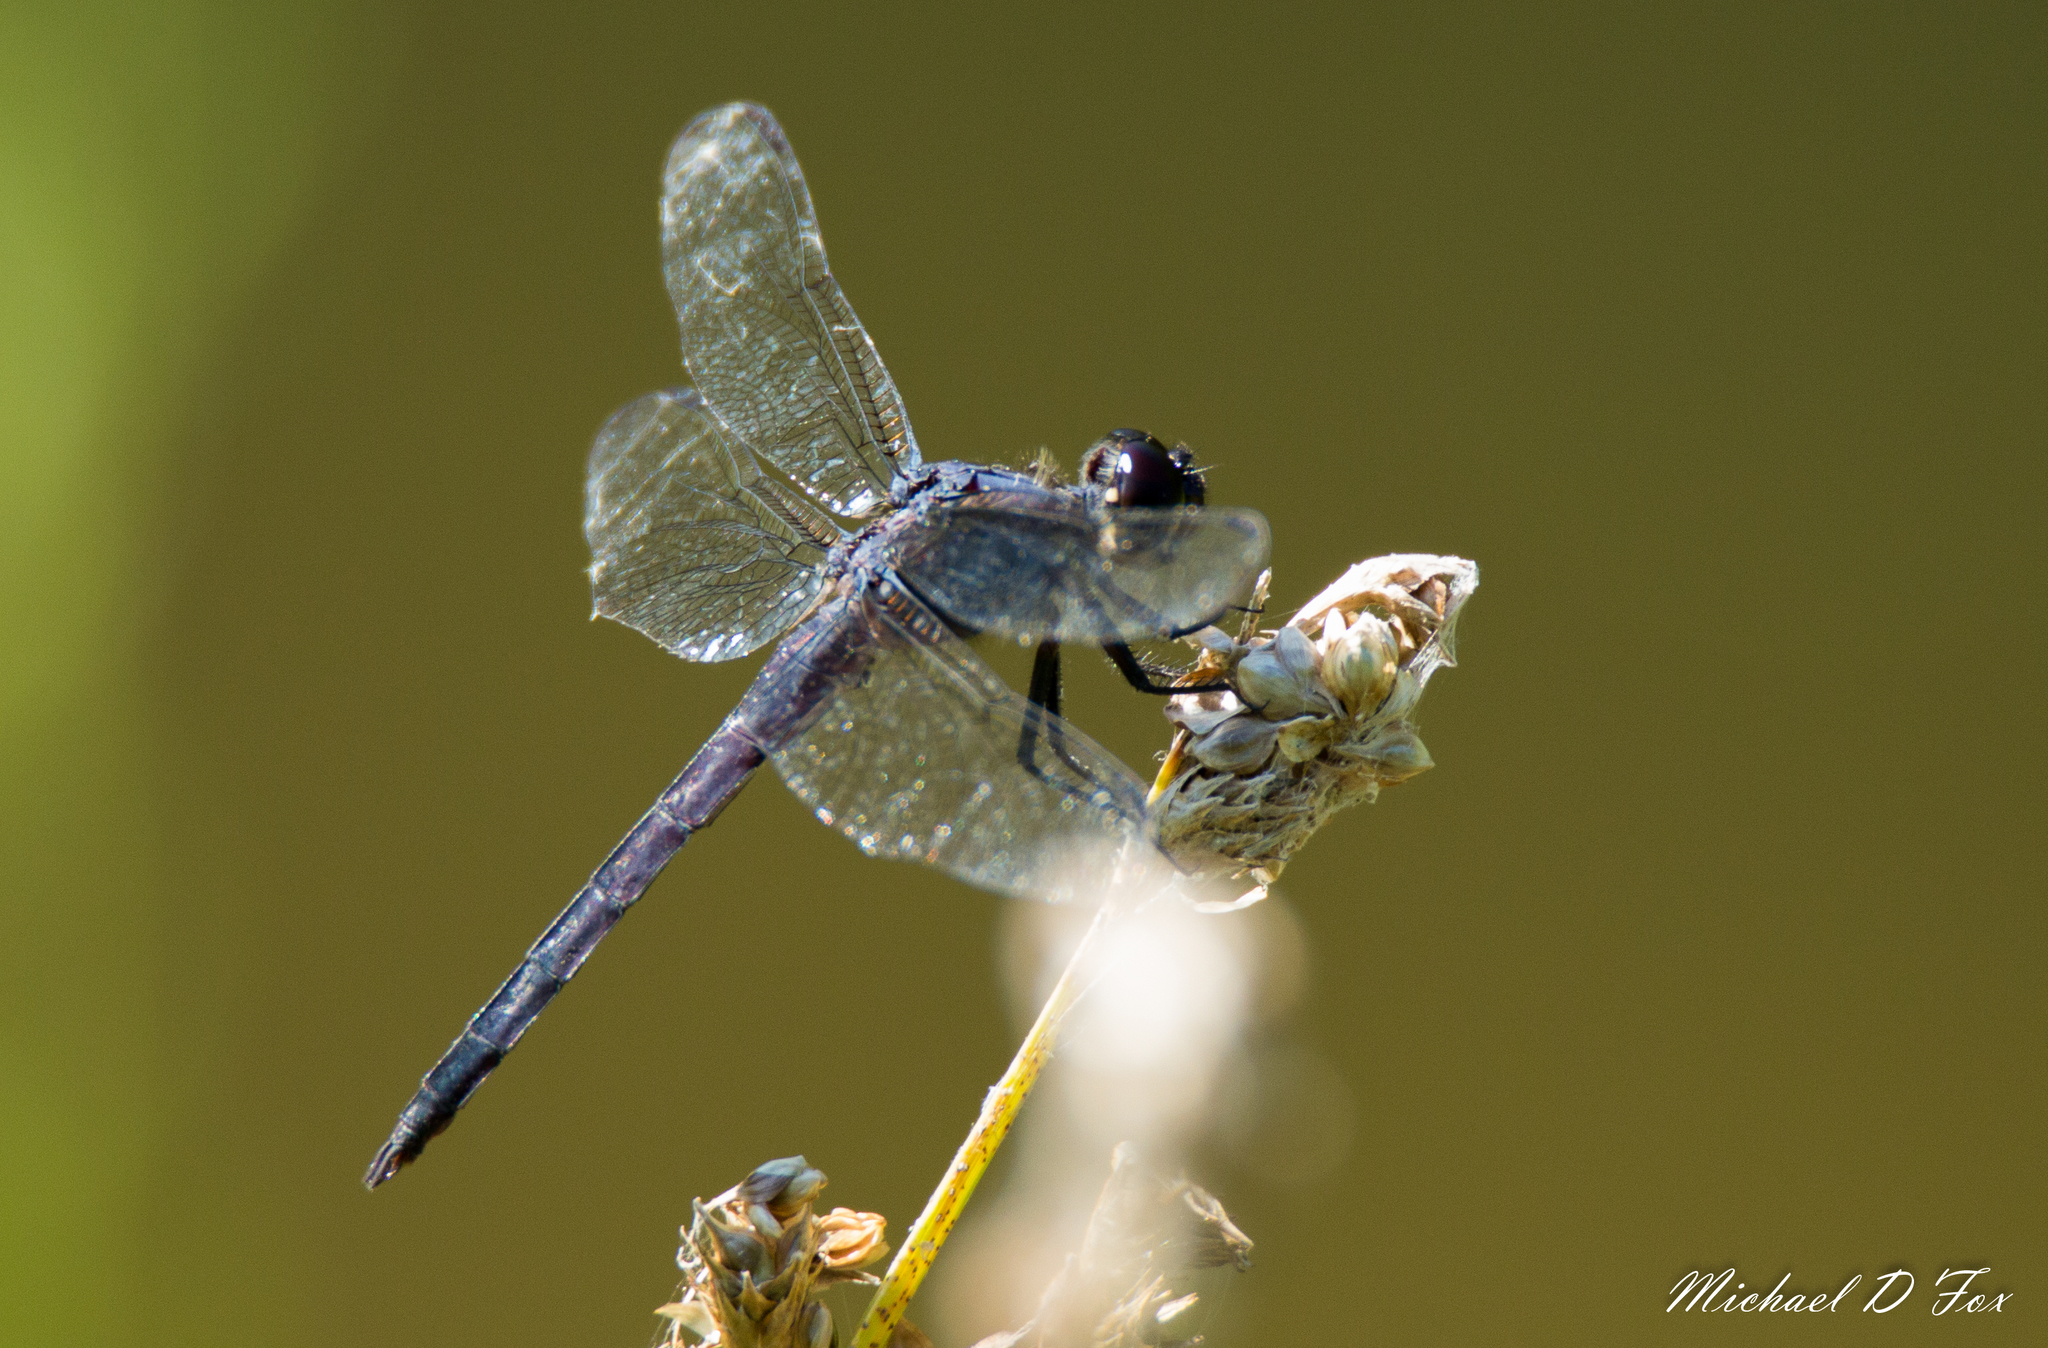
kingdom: Animalia
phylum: Arthropoda
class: Insecta
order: Odonata
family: Libellulidae
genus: Libellula
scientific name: Libellula incesta
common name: Slaty skimmer
